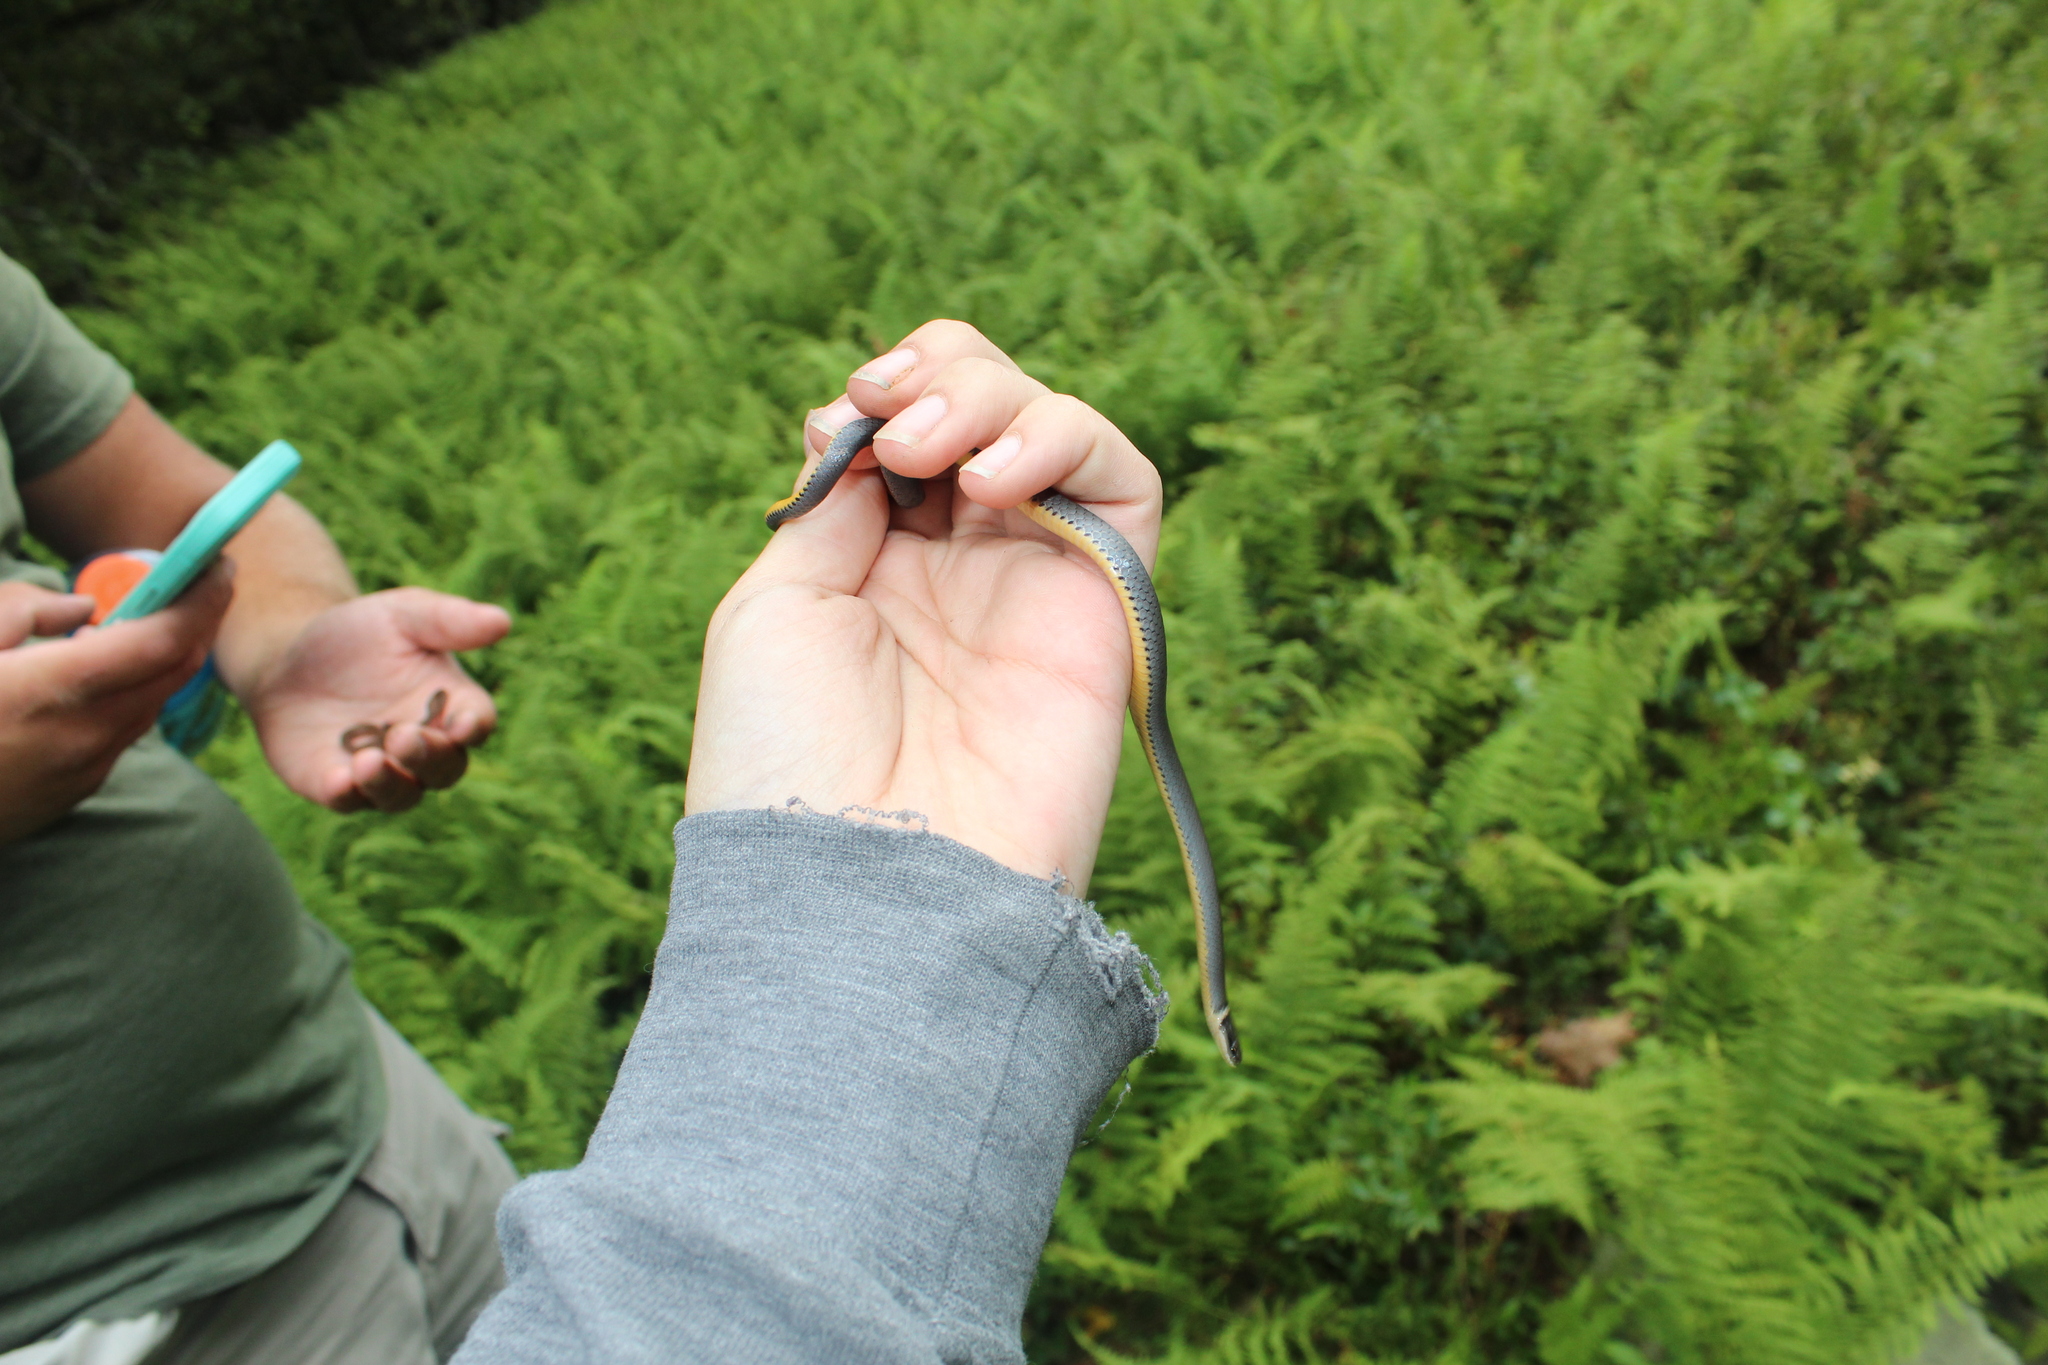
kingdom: Animalia
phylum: Chordata
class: Squamata
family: Colubridae
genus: Diadophis
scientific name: Diadophis punctatus
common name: Ringneck snake
